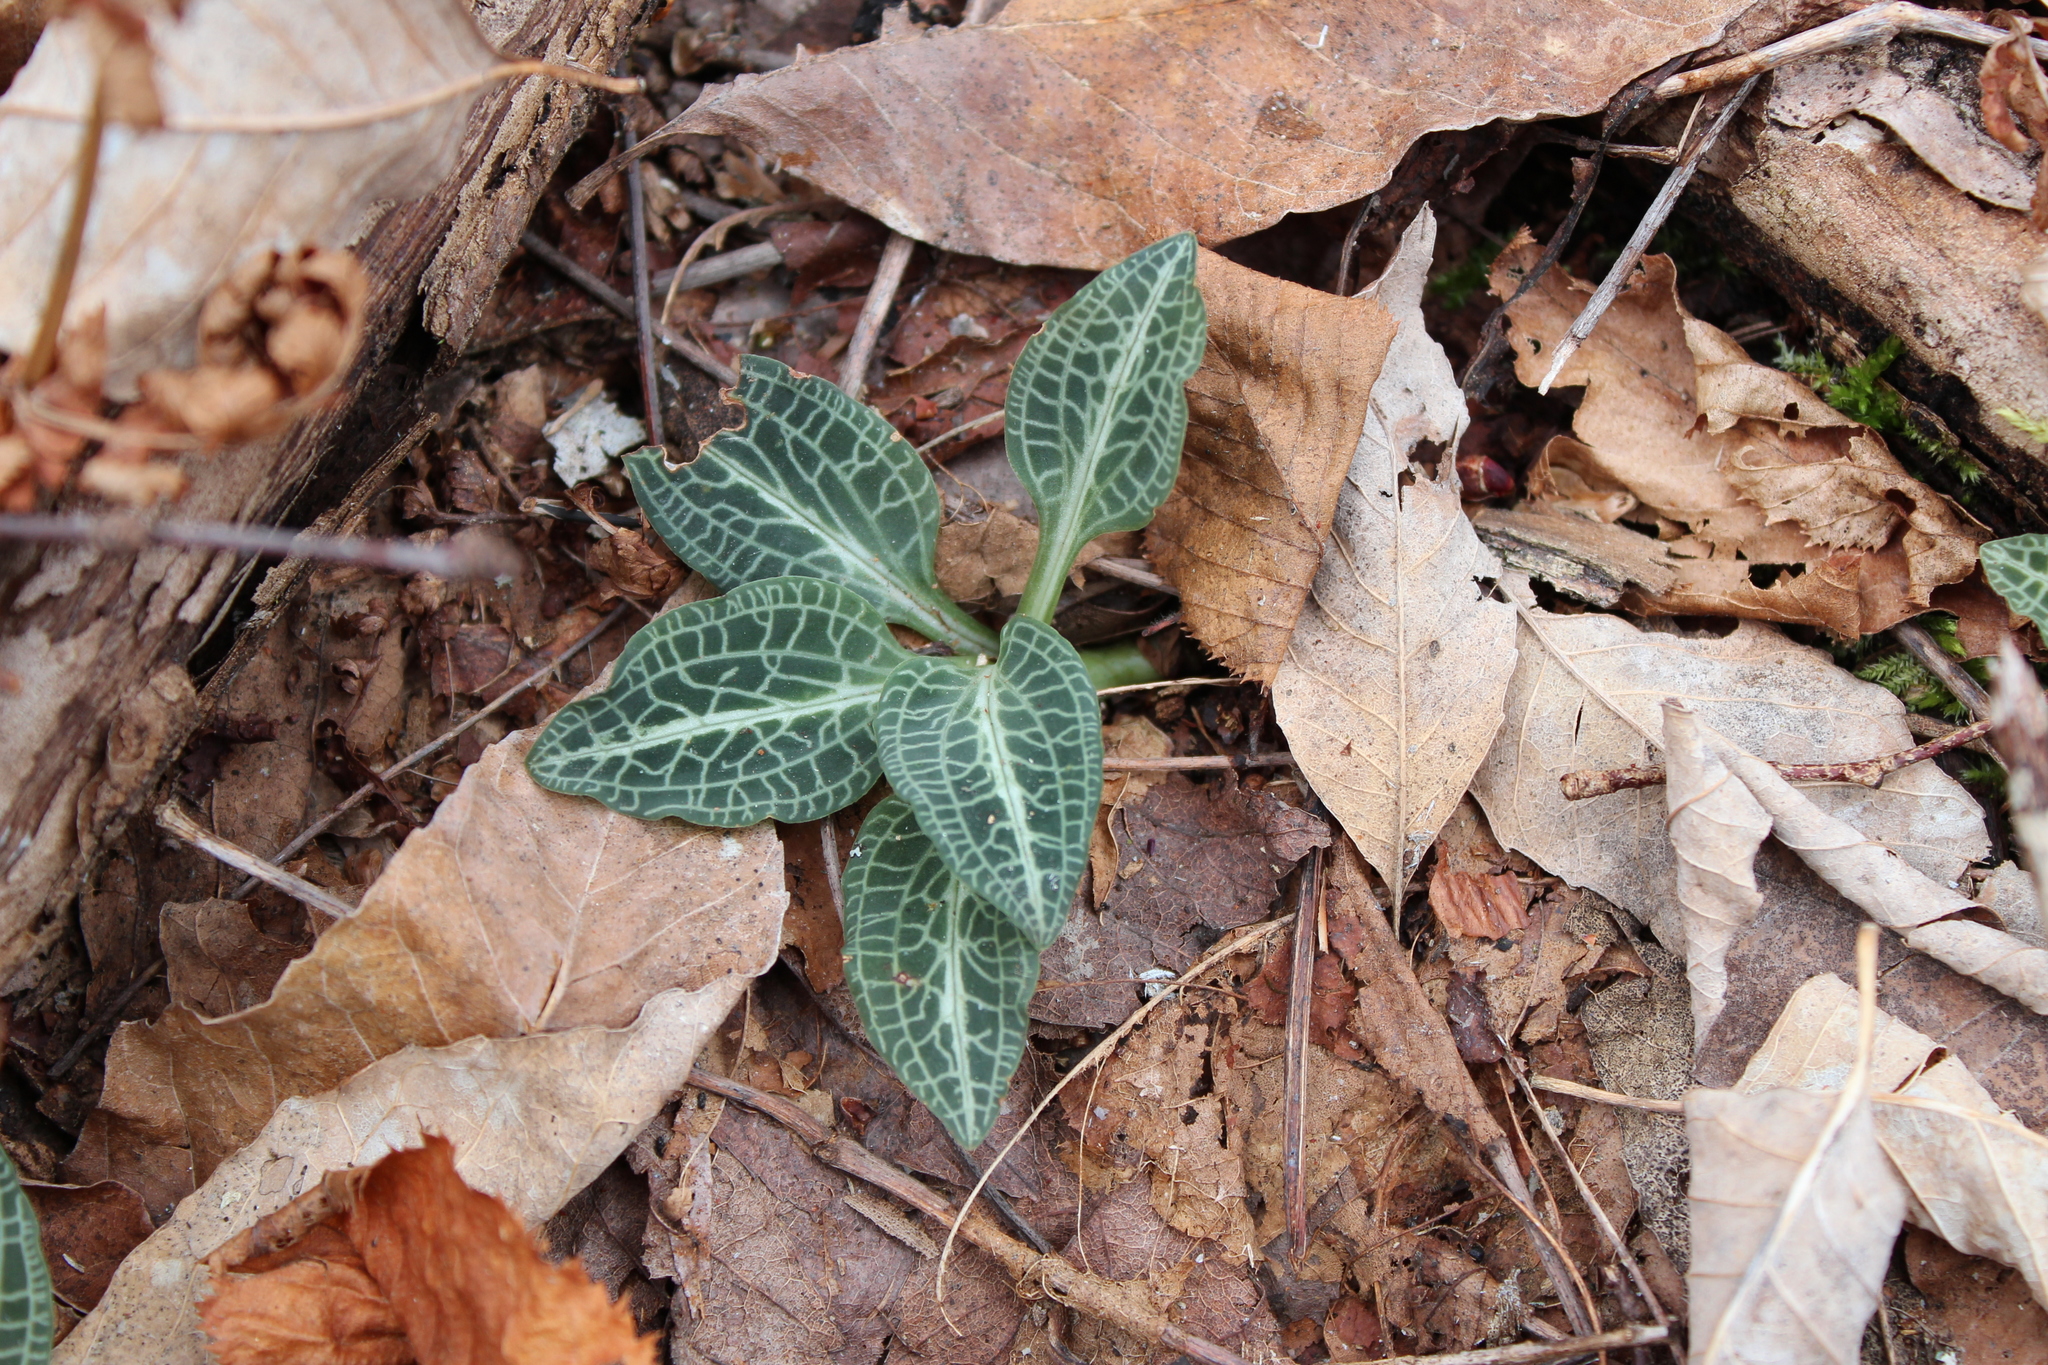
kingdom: Plantae
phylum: Tracheophyta
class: Liliopsida
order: Asparagales
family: Orchidaceae
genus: Goodyera
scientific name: Goodyera pubescens
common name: Downy rattlesnake-plantain
